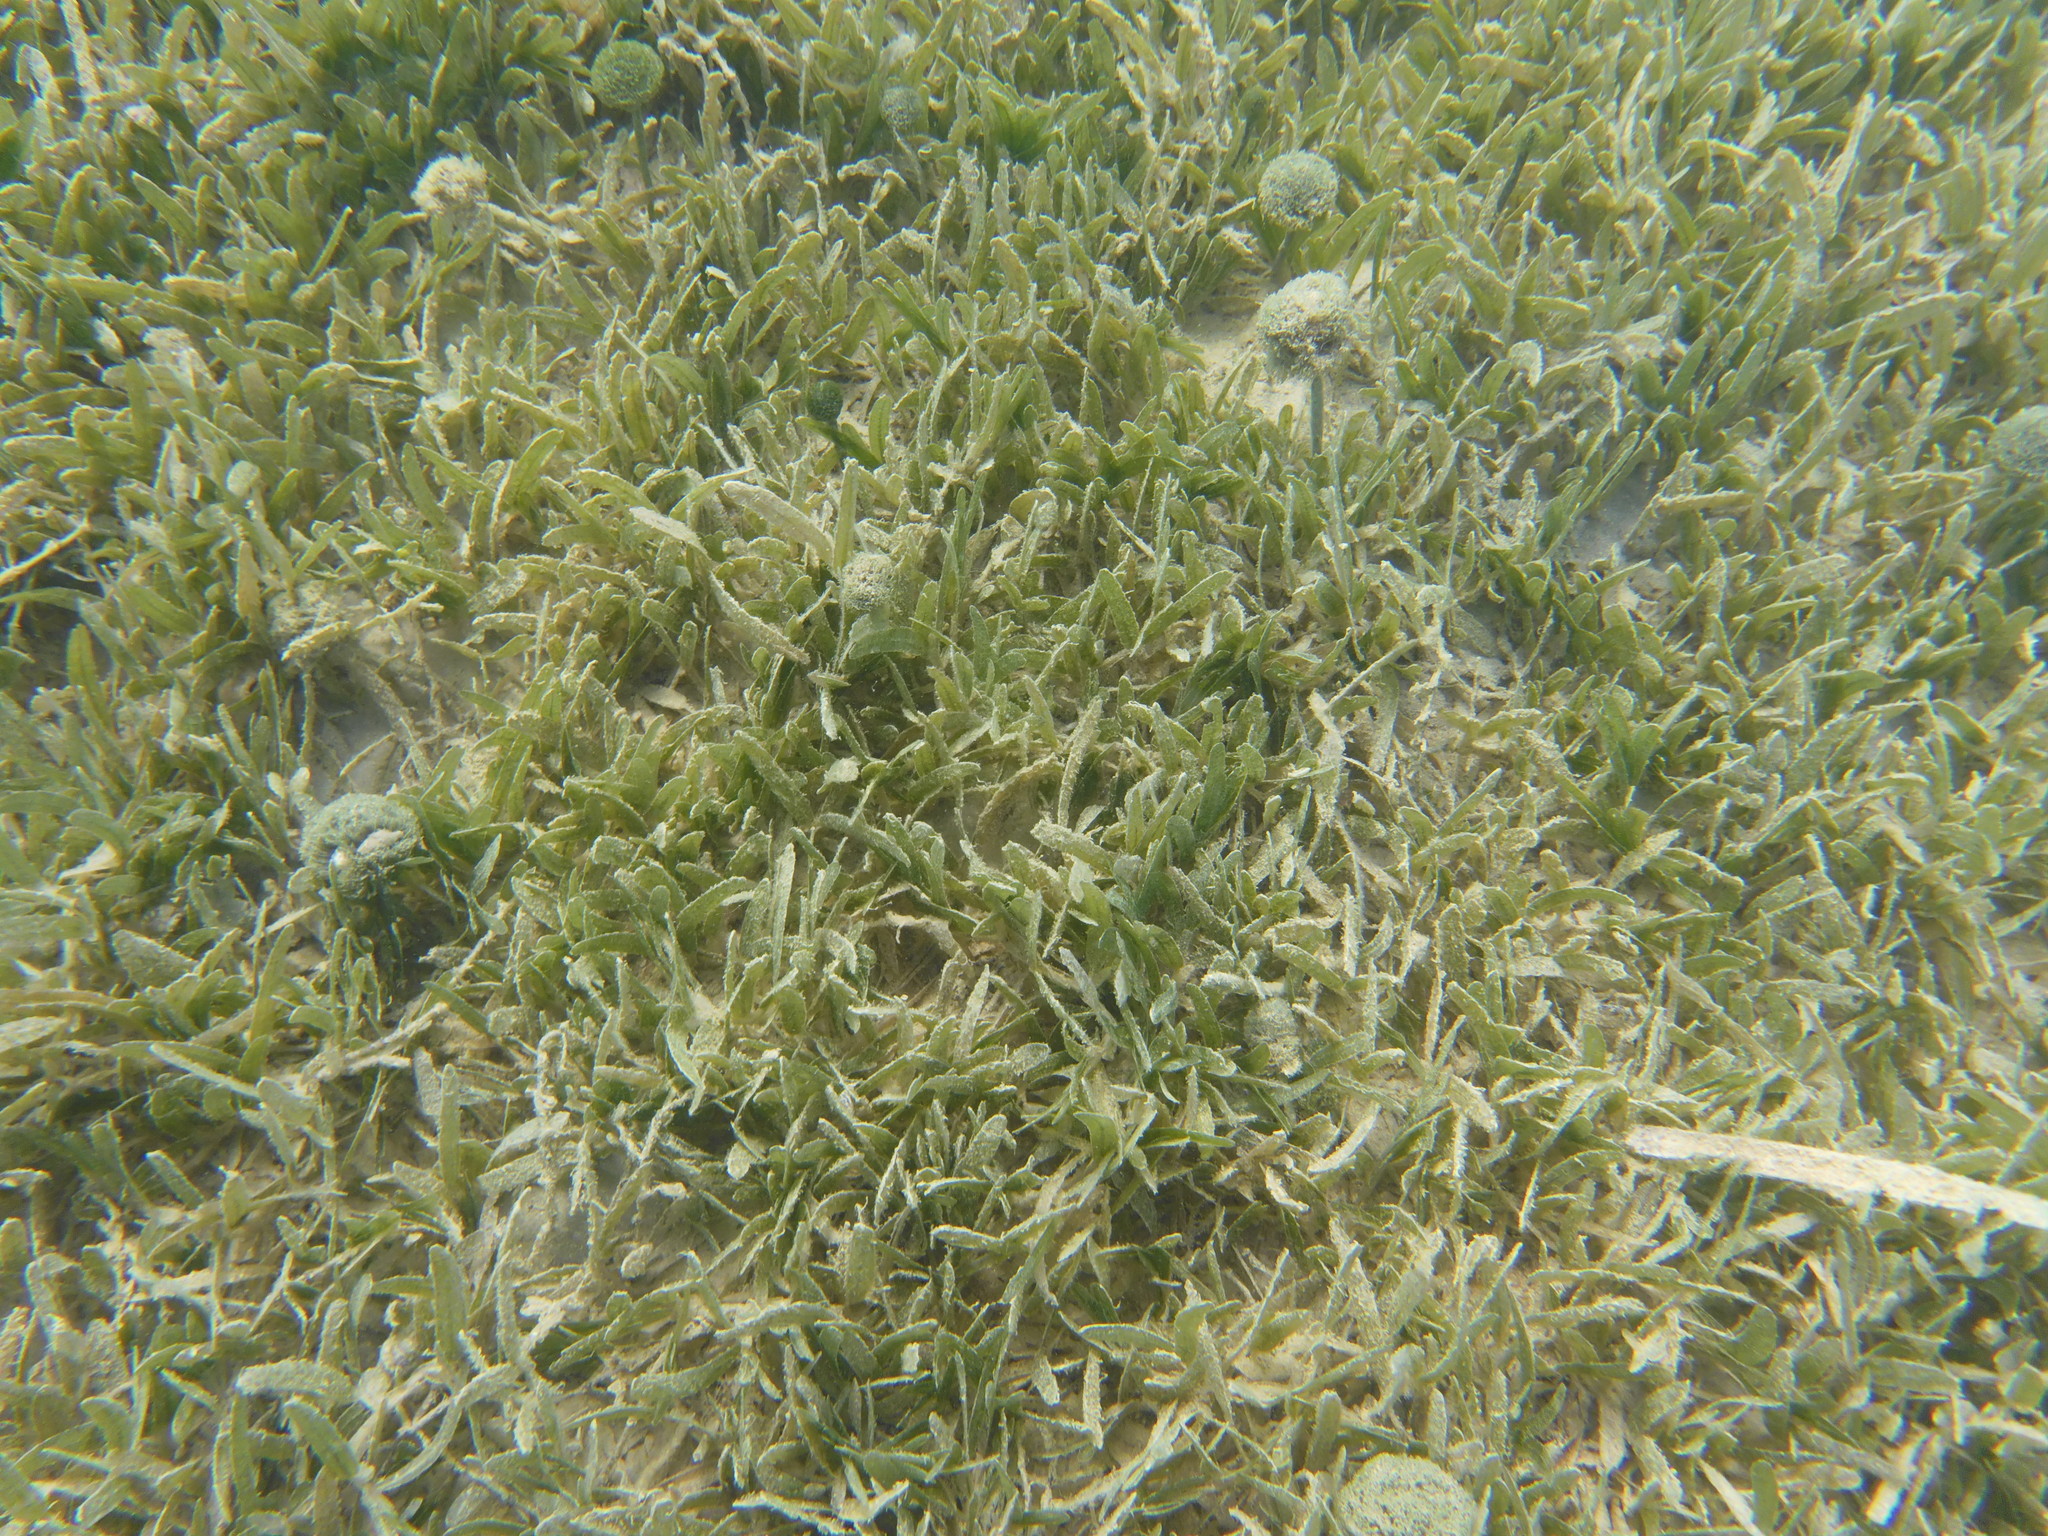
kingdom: Plantae
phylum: Tracheophyta
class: Liliopsida
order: Alismatales
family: Hydrocharitaceae
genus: Thalassia
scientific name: Thalassia testudinum
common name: Species code: tt
